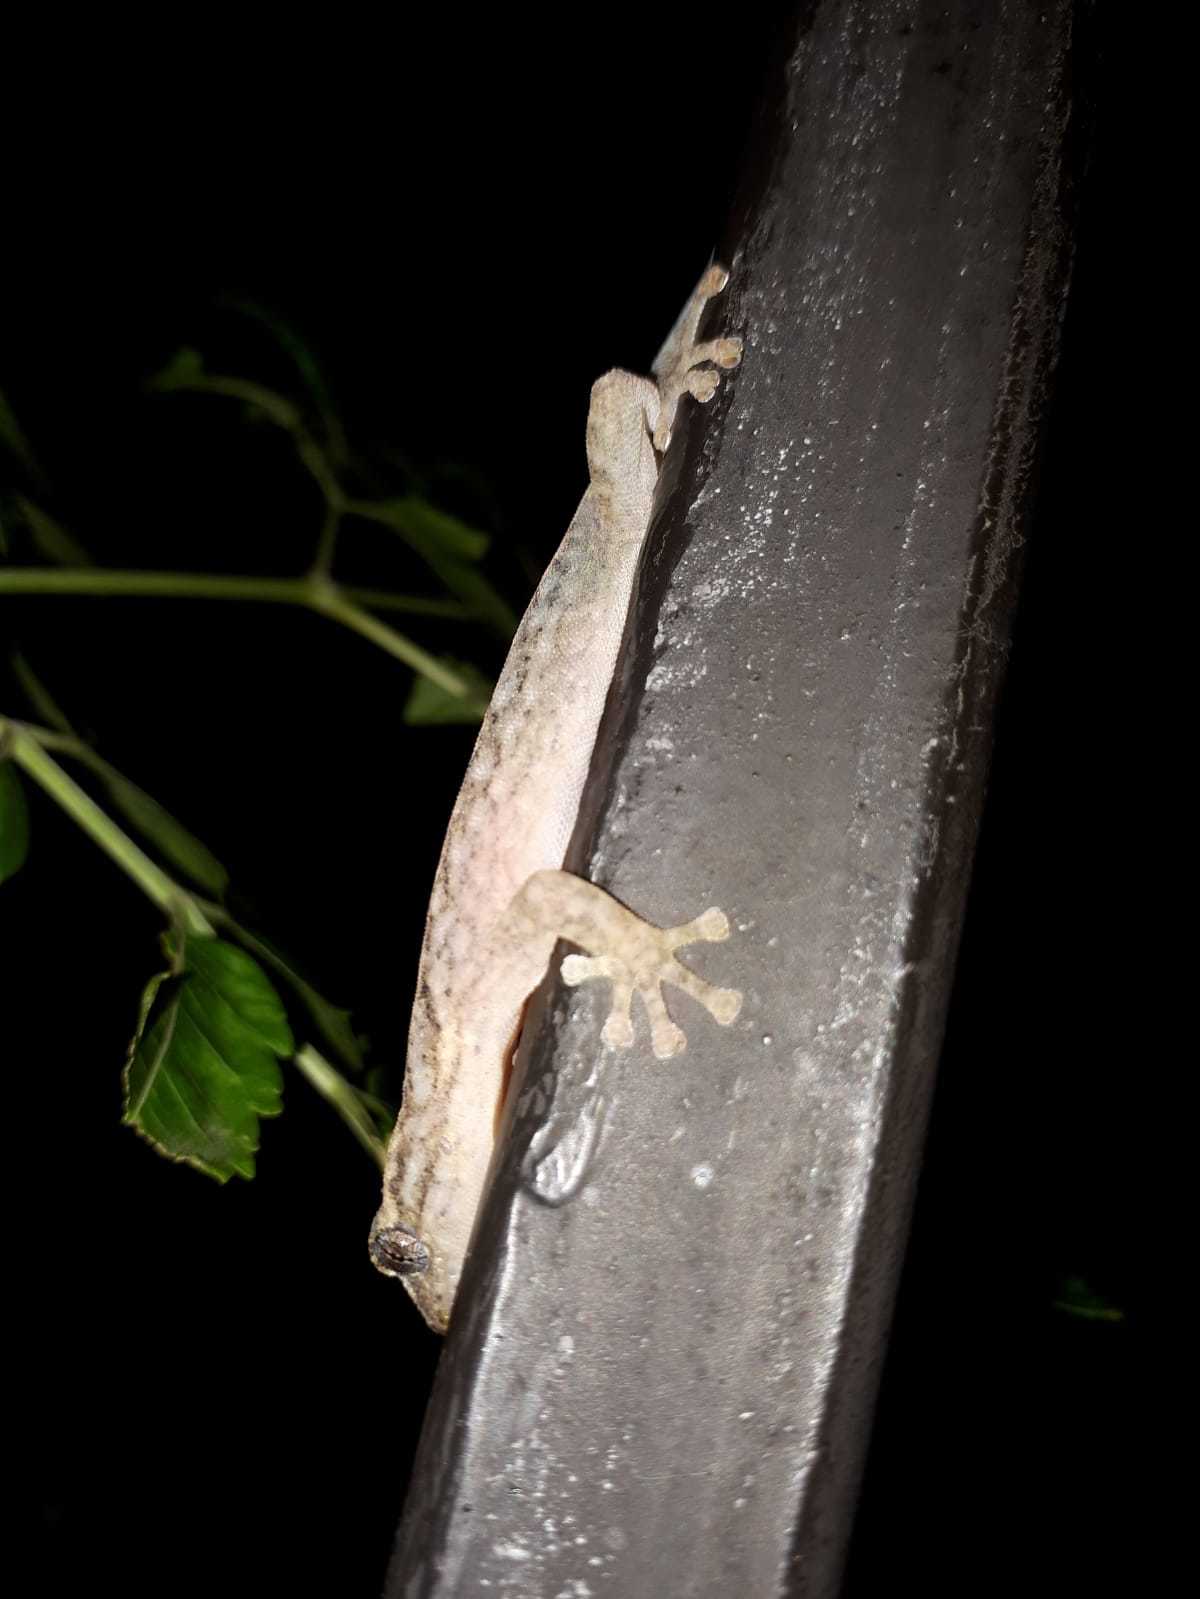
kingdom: Animalia
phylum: Chordata
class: Squamata
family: Gekkonidae
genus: Afrogecko
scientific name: Afrogecko porphyreus
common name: Marbled leaf-toed gecko
